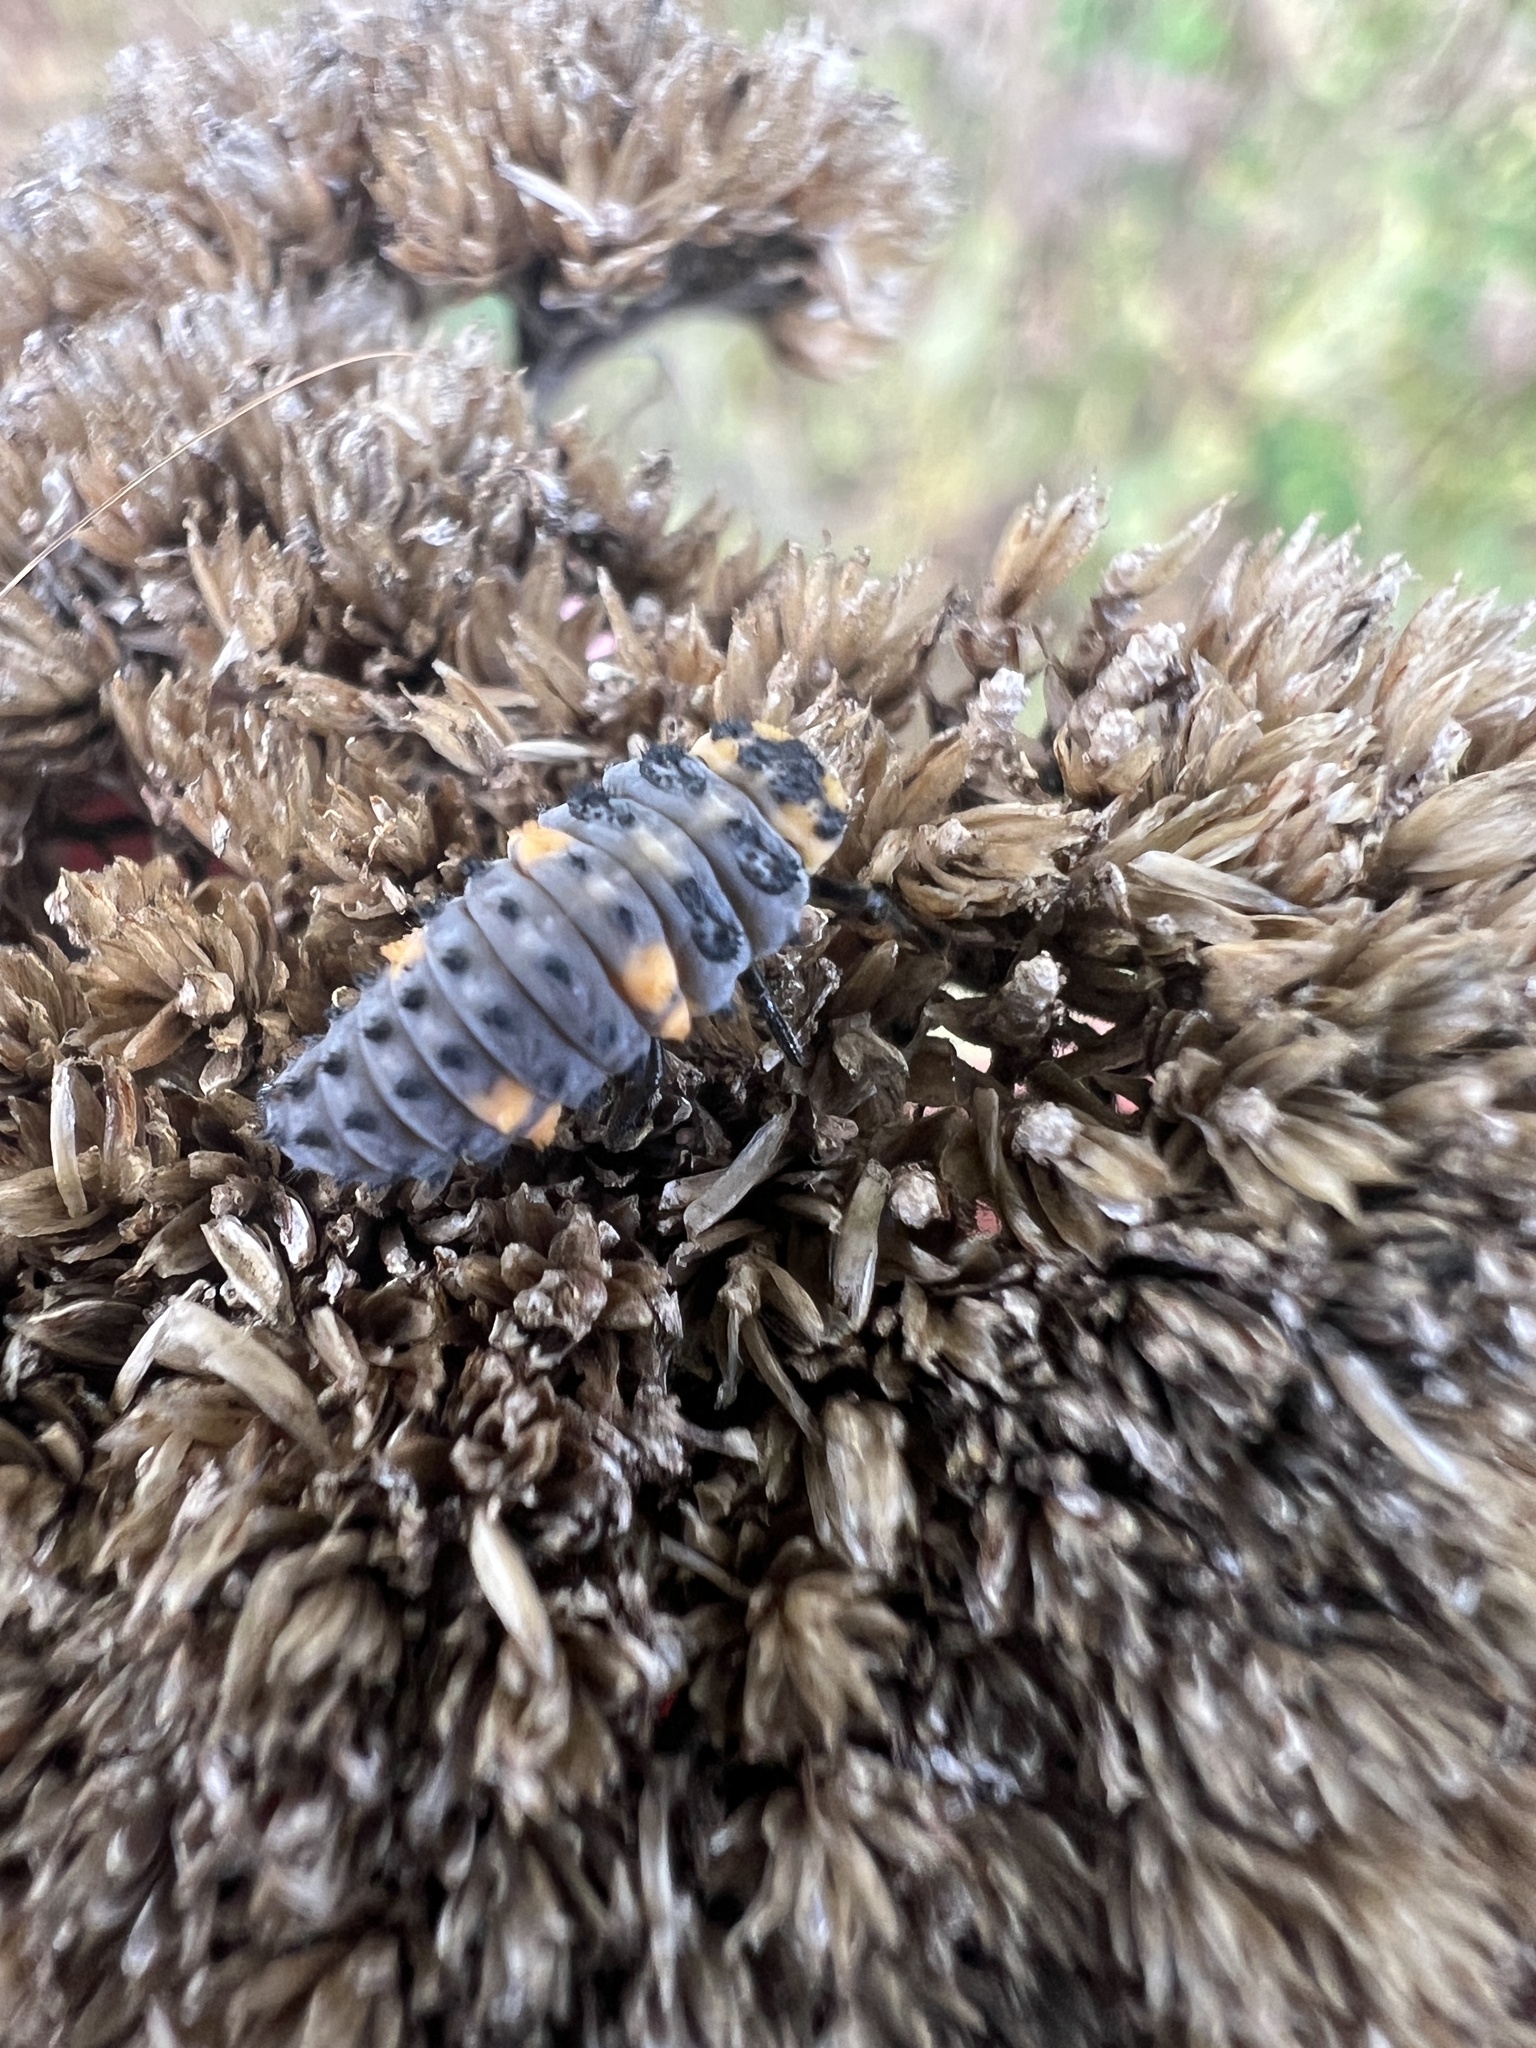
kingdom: Animalia
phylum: Arthropoda
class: Insecta
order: Coleoptera
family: Coccinellidae
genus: Coccinella
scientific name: Coccinella septempunctata
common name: Sevenspotted lady beetle
